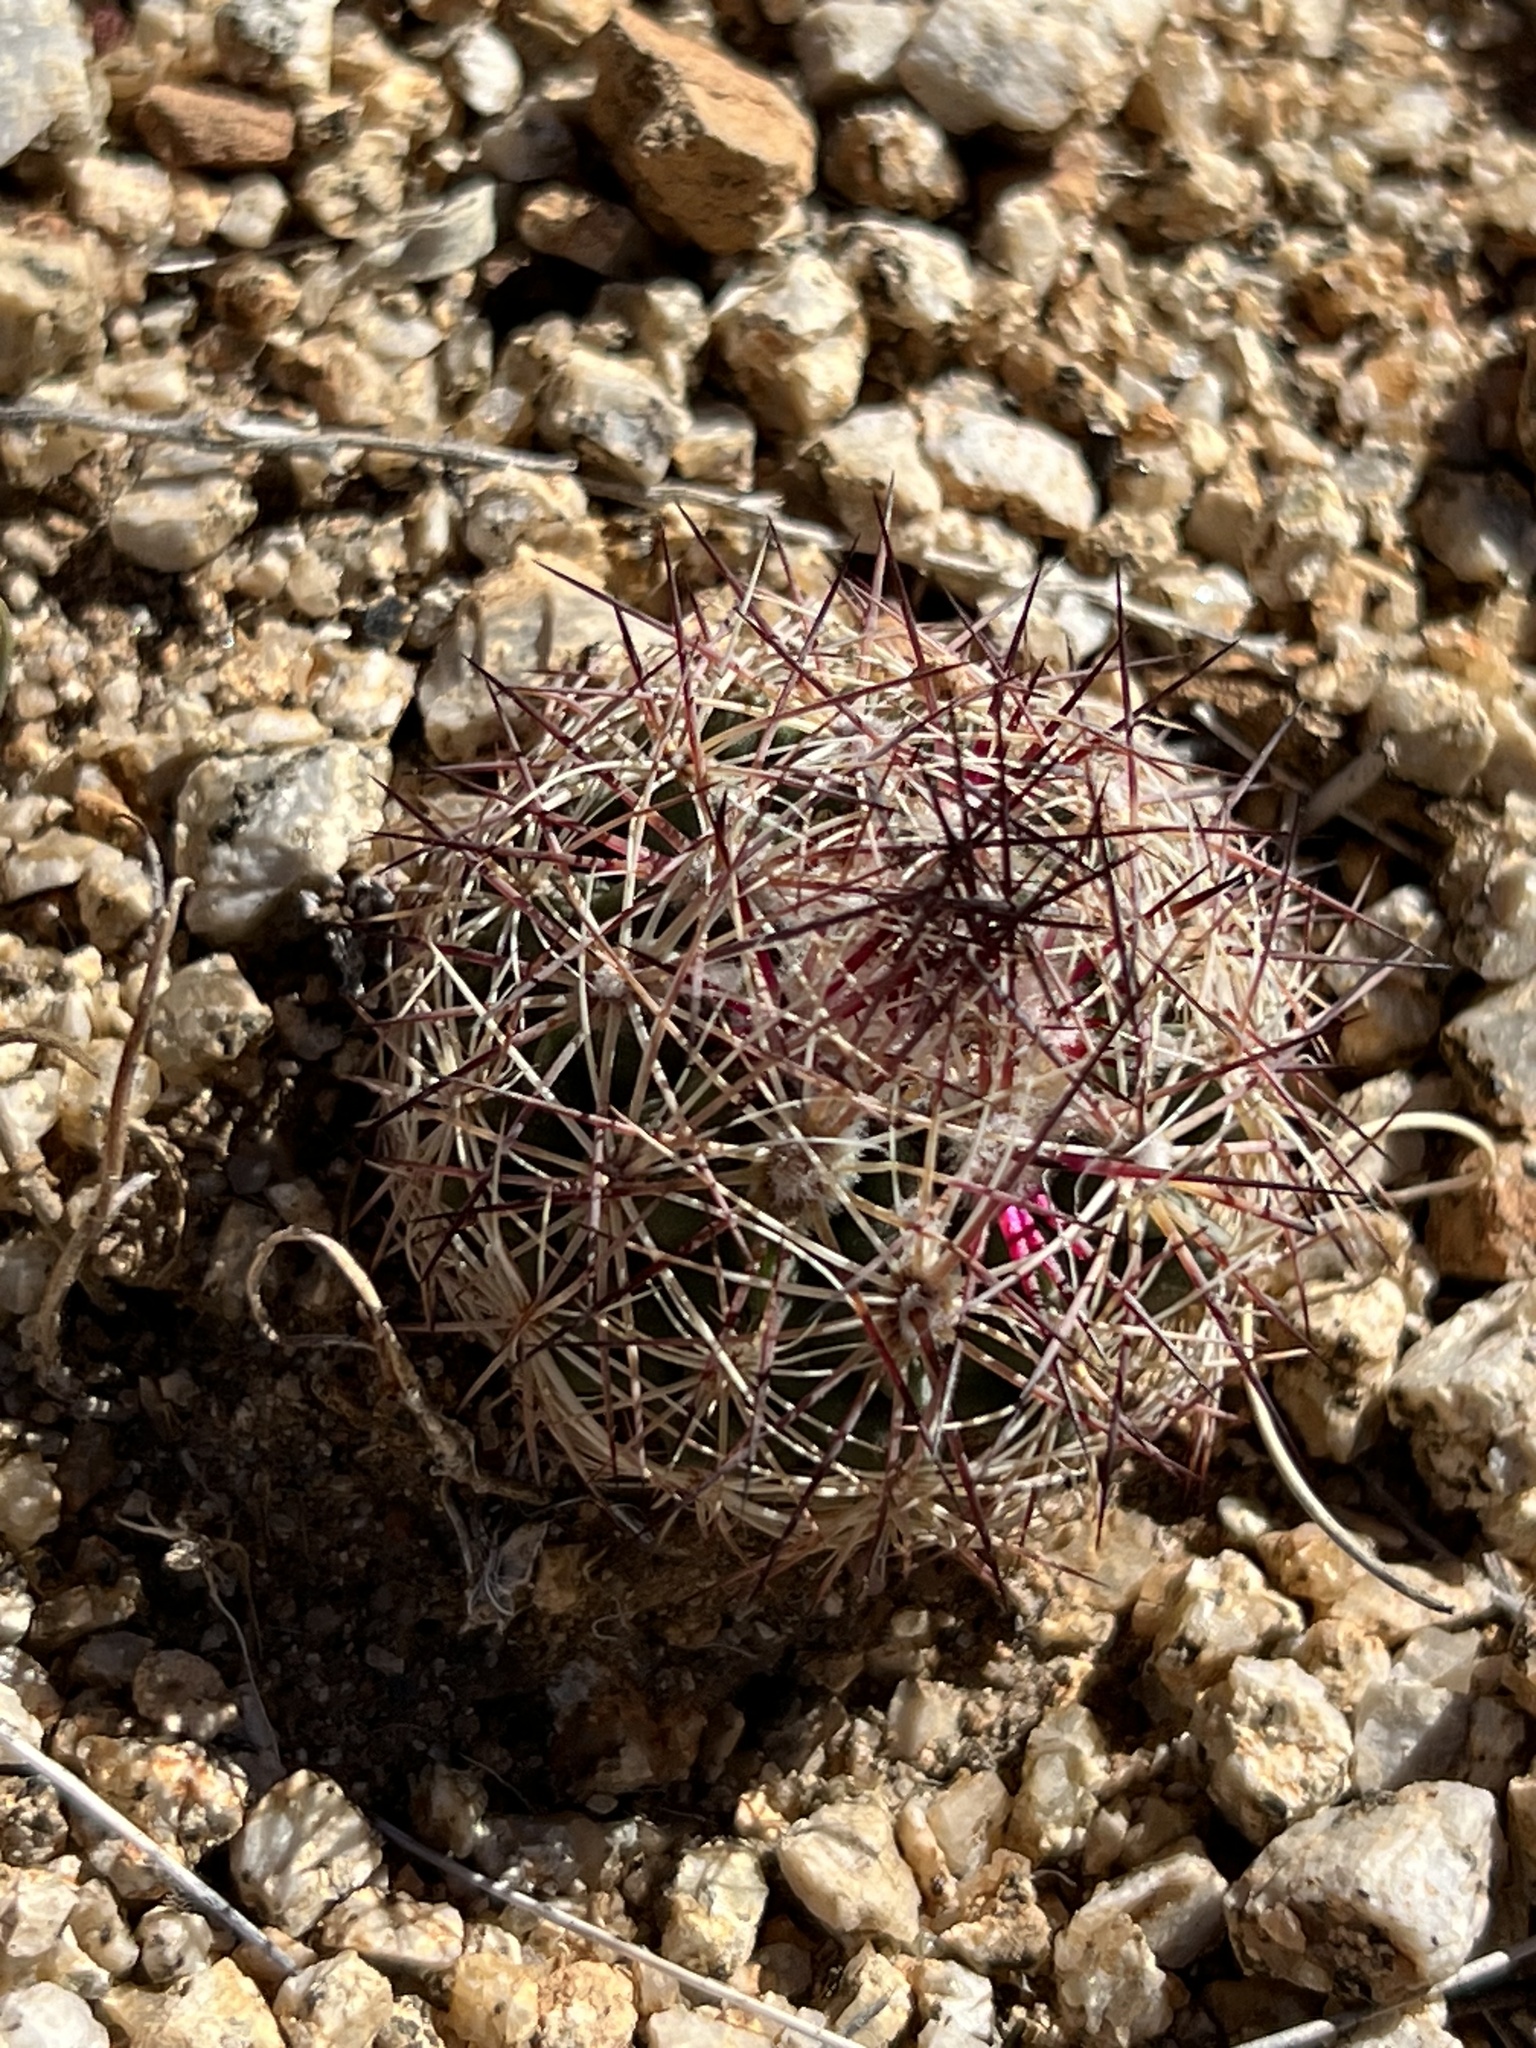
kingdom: Plantae
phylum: Tracheophyta
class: Magnoliopsida
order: Caryophyllales
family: Cactaceae
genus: Sclerocactus
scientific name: Sclerocactus intertextus
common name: White fish-hook cactus
